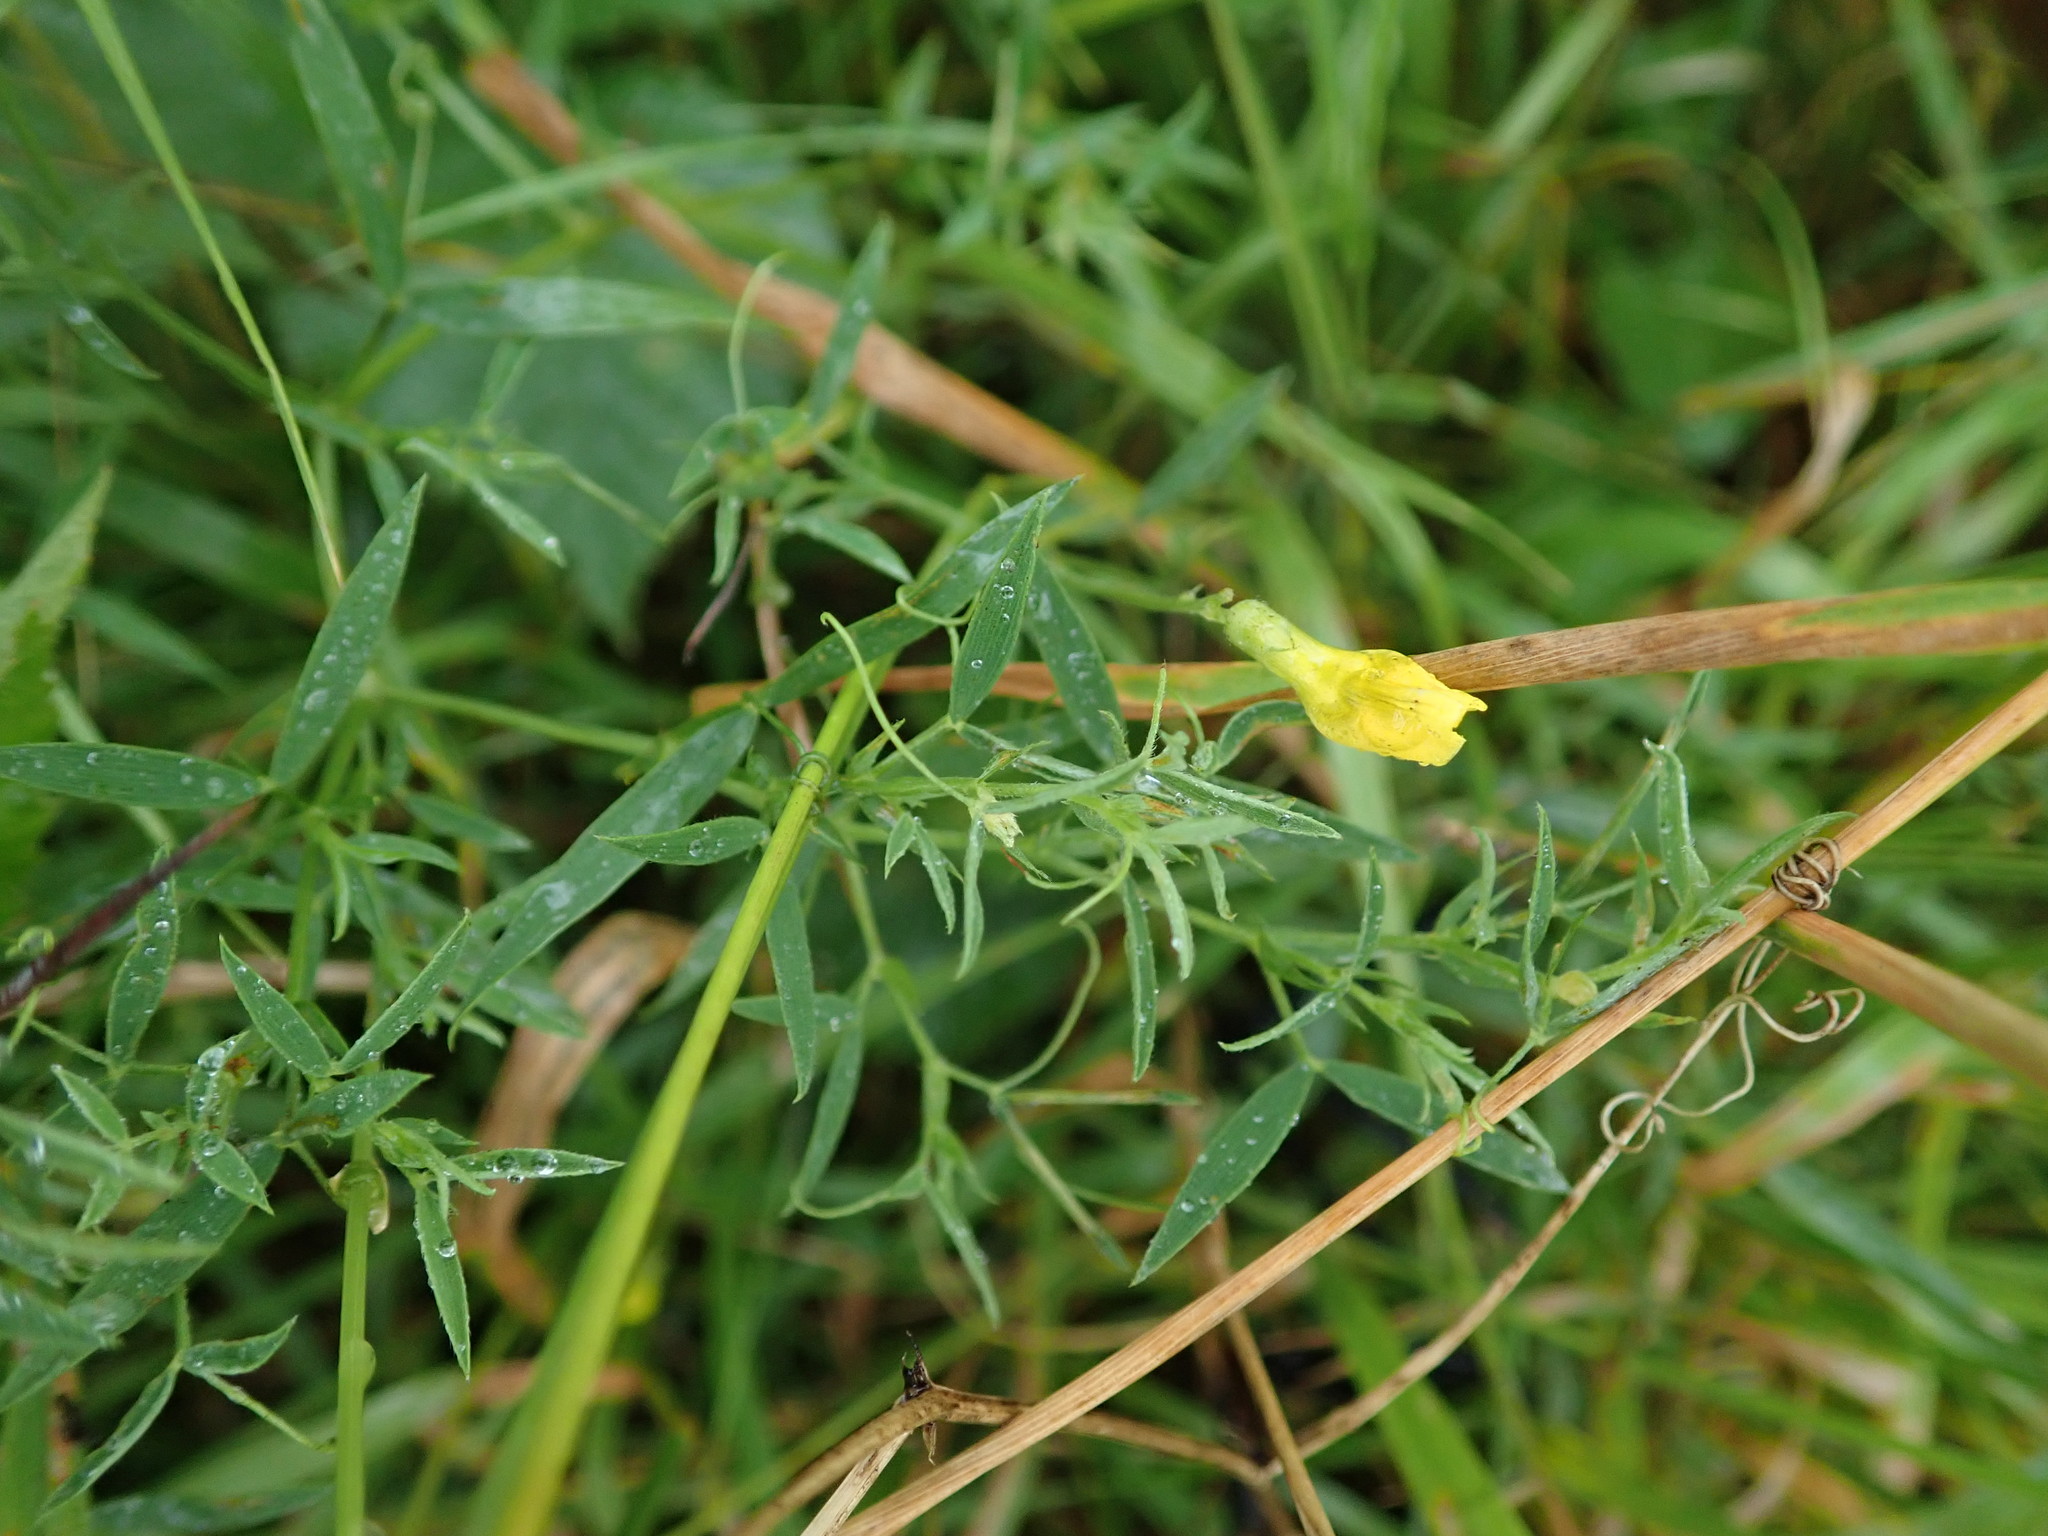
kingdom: Plantae
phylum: Tracheophyta
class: Magnoliopsida
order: Fabales
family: Fabaceae
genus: Lathyrus
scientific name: Lathyrus pratensis
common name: Meadow vetchling
